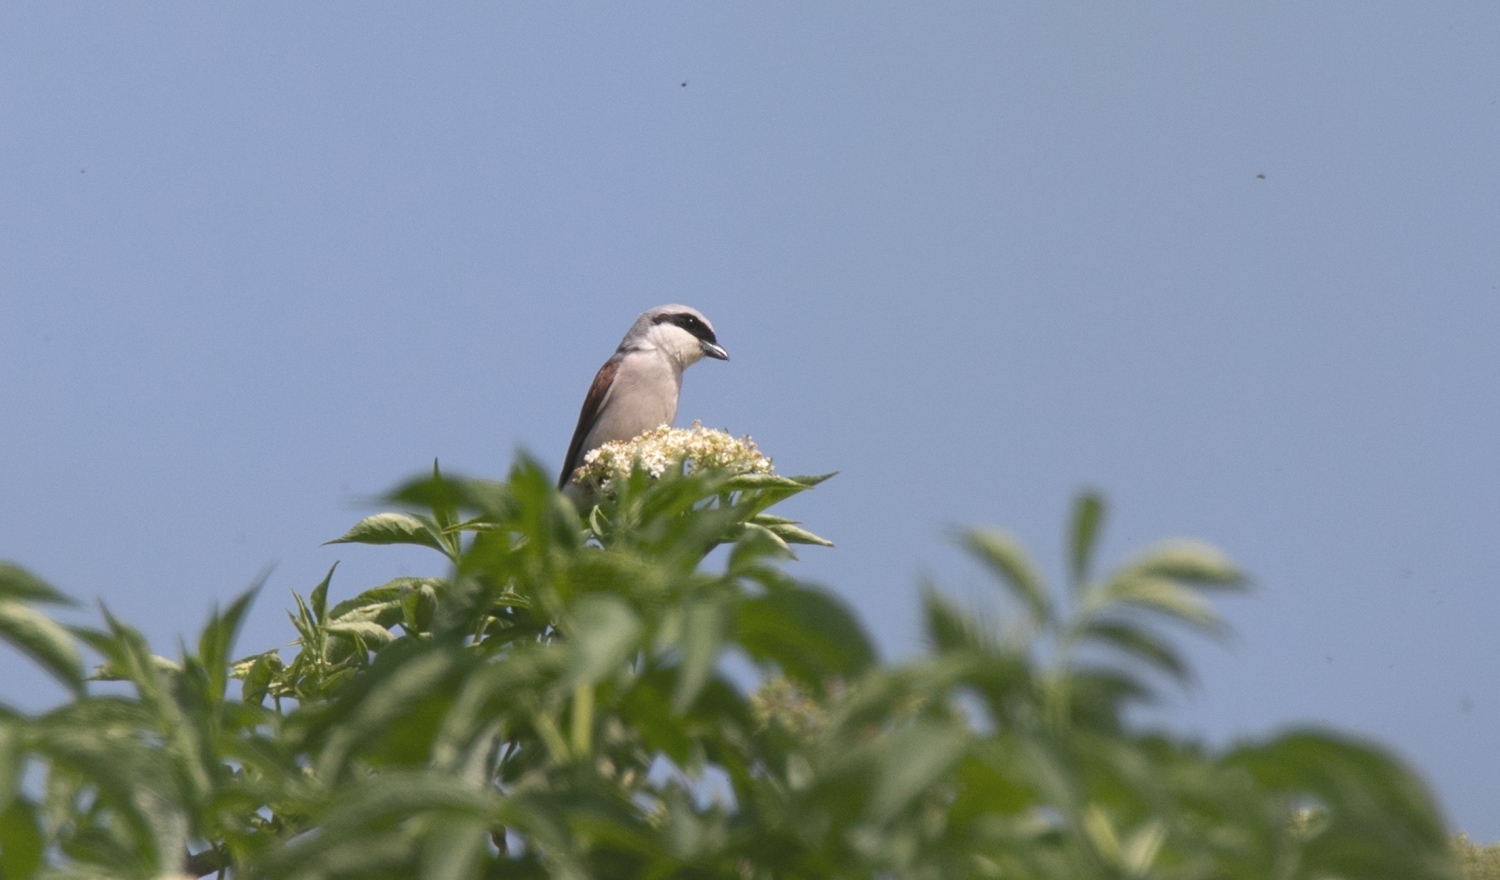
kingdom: Animalia
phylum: Chordata
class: Aves
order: Passeriformes
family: Laniidae
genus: Lanius
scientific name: Lanius collurio
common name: Red-backed shrike
